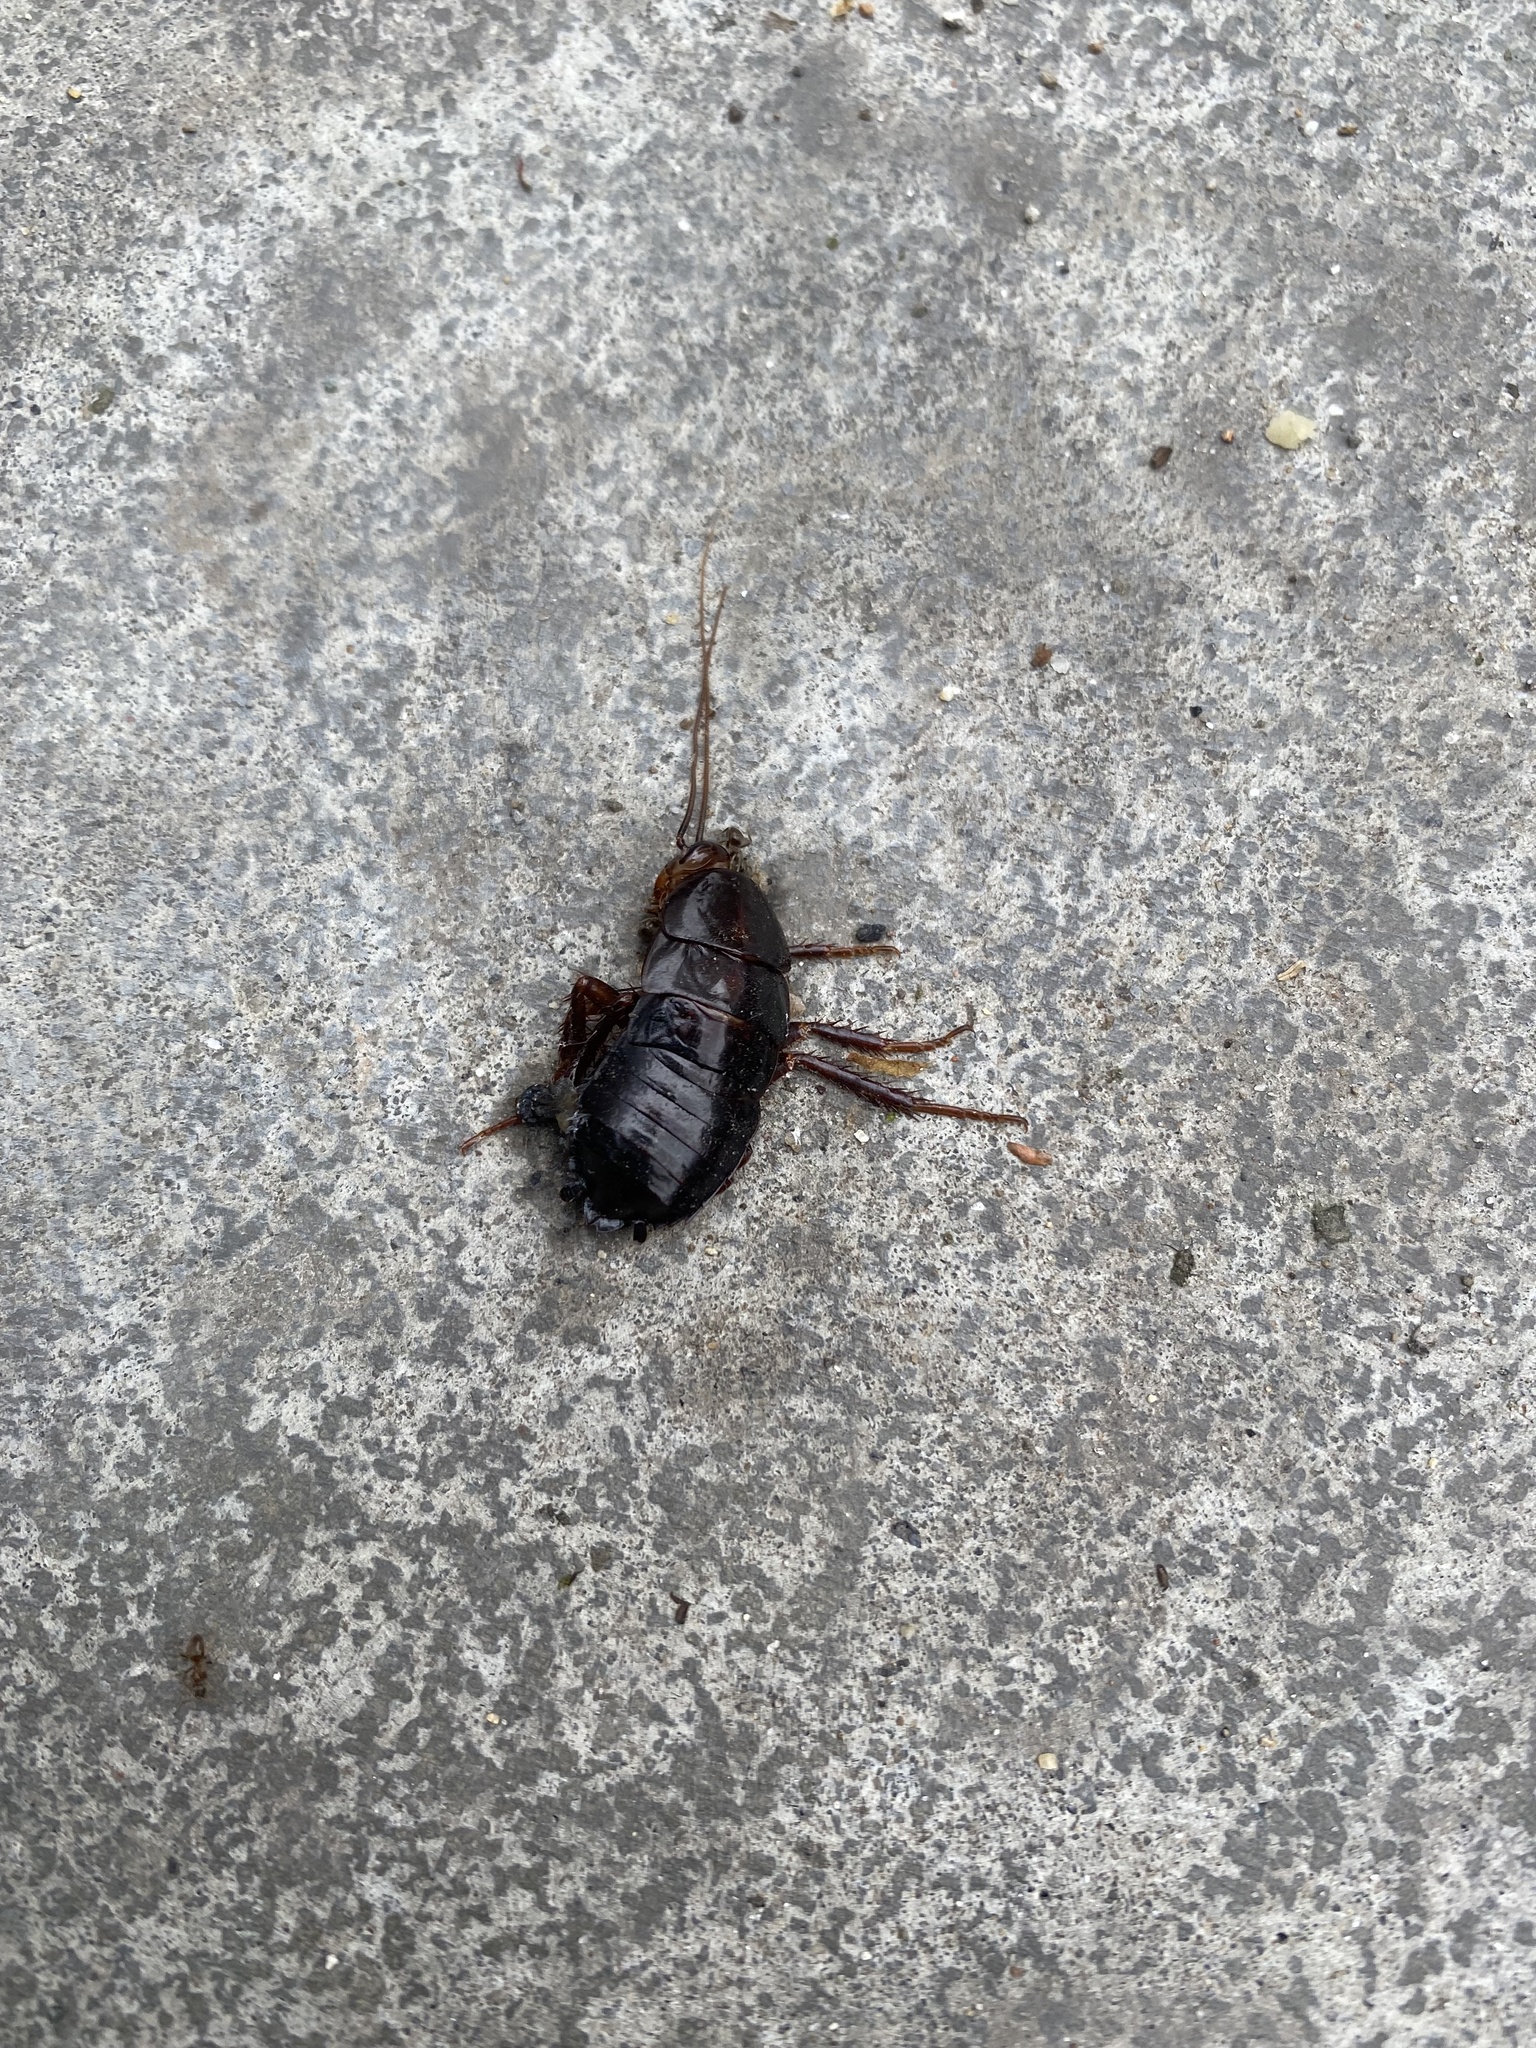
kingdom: Animalia
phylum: Arthropoda
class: Insecta
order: Blattodea
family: Blattidae
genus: Blatta
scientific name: Blatta orientalis
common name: Oriental cockroach
